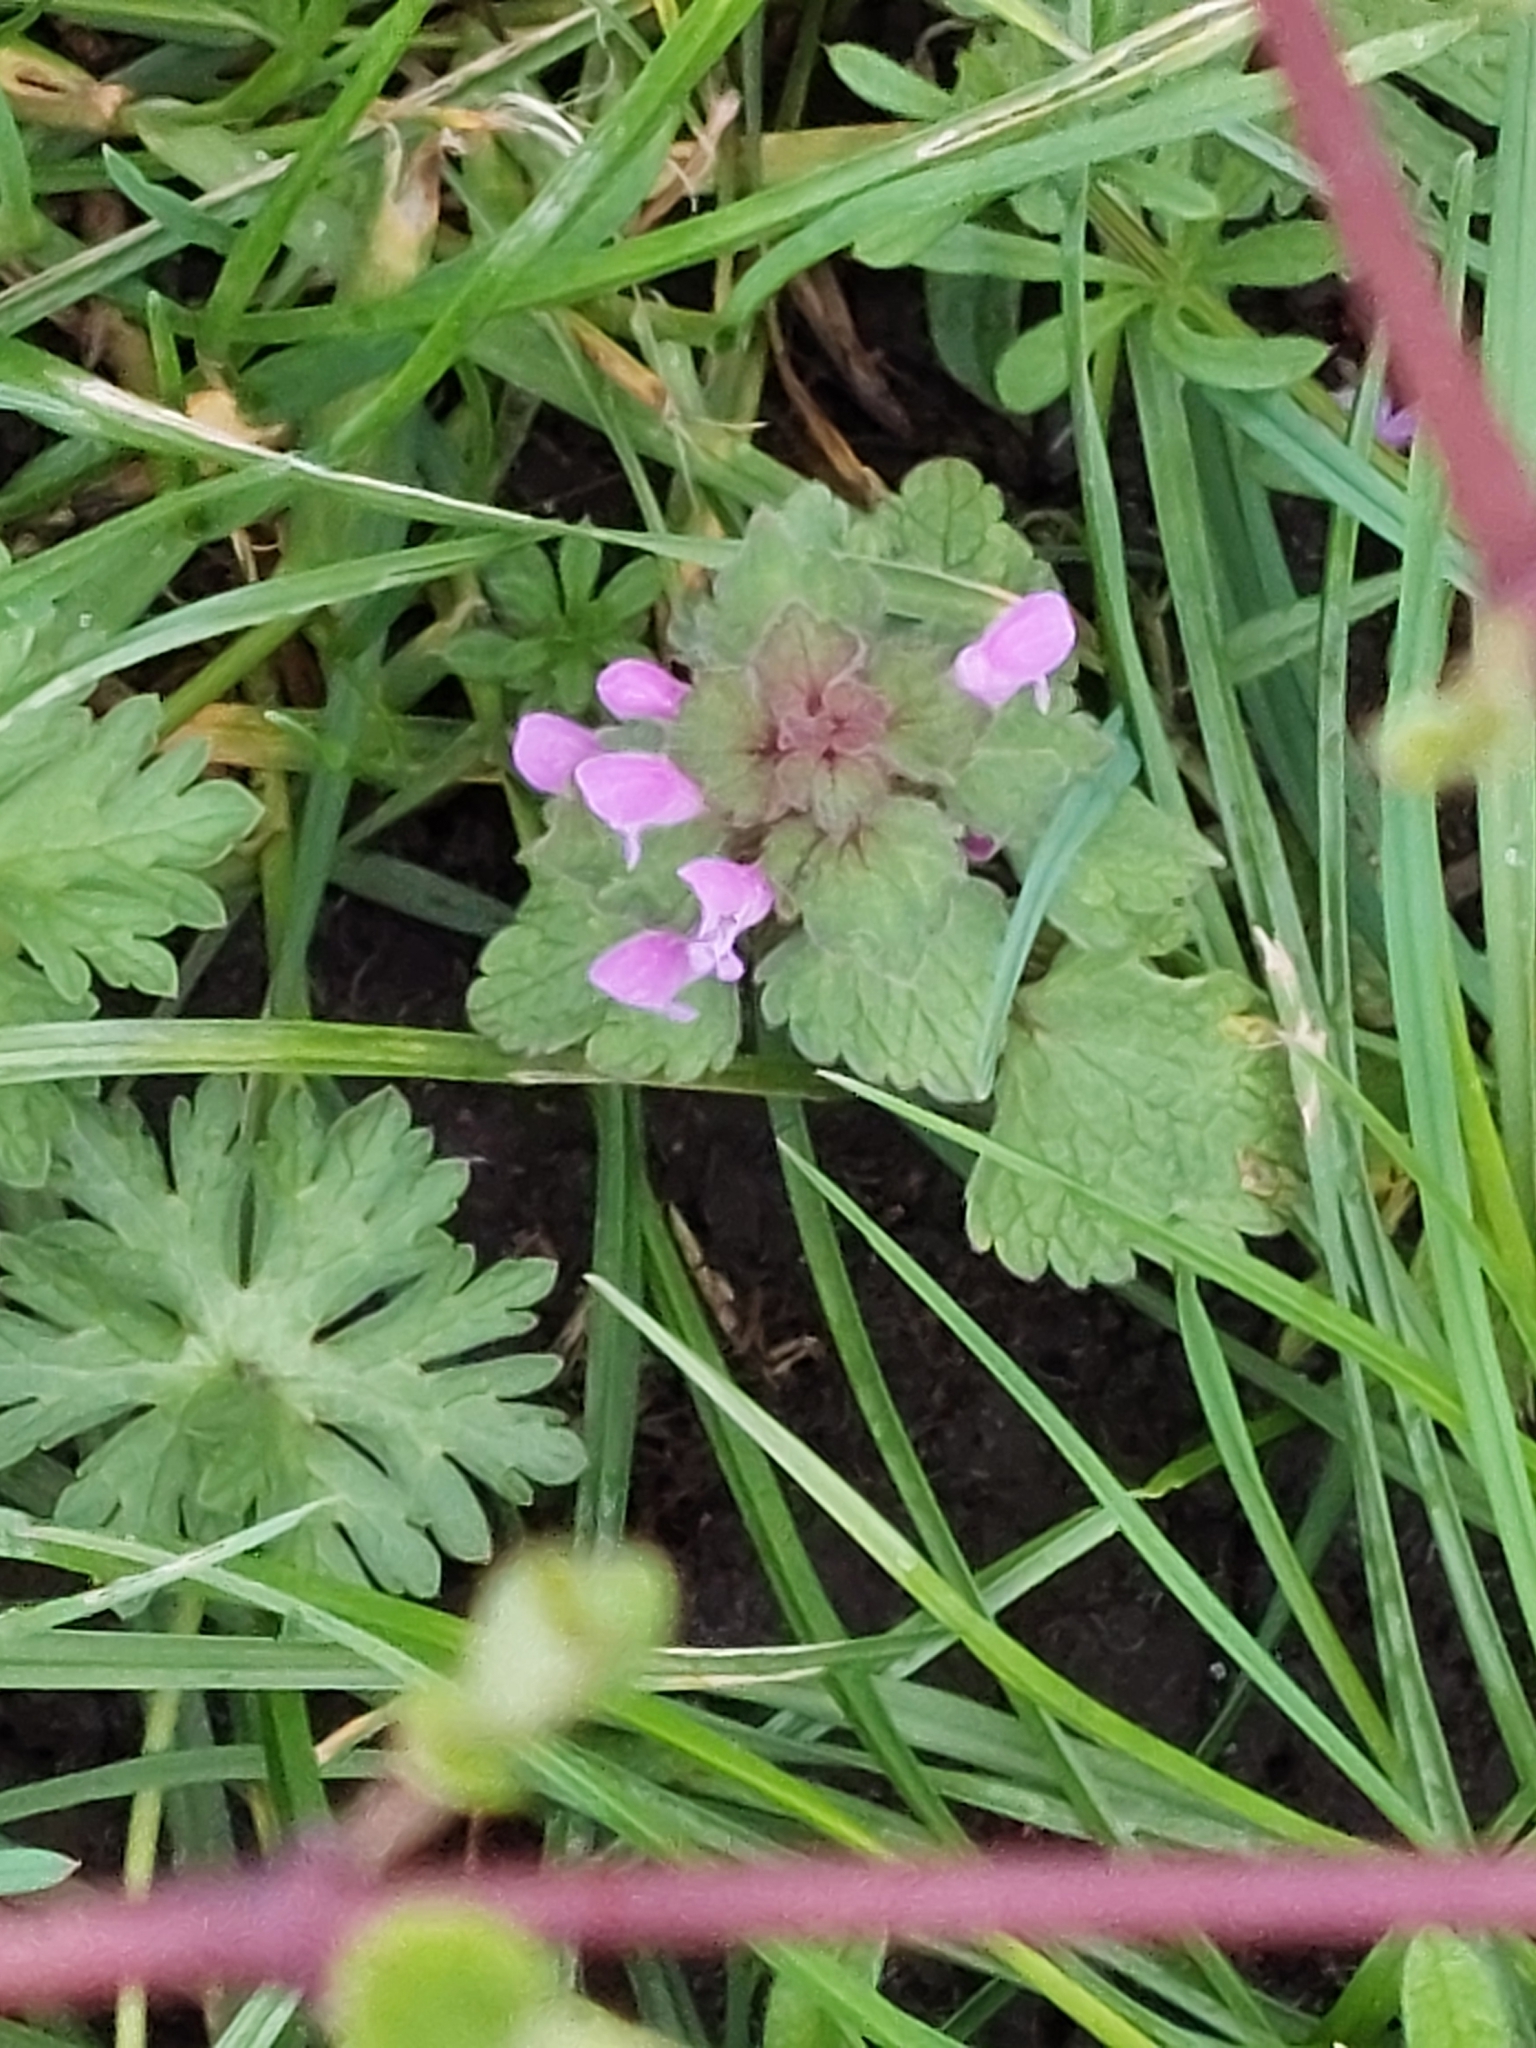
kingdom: Plantae
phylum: Tracheophyta
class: Magnoliopsida
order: Lamiales
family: Lamiaceae
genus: Lamium
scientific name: Lamium purpureum
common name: Red dead-nettle
